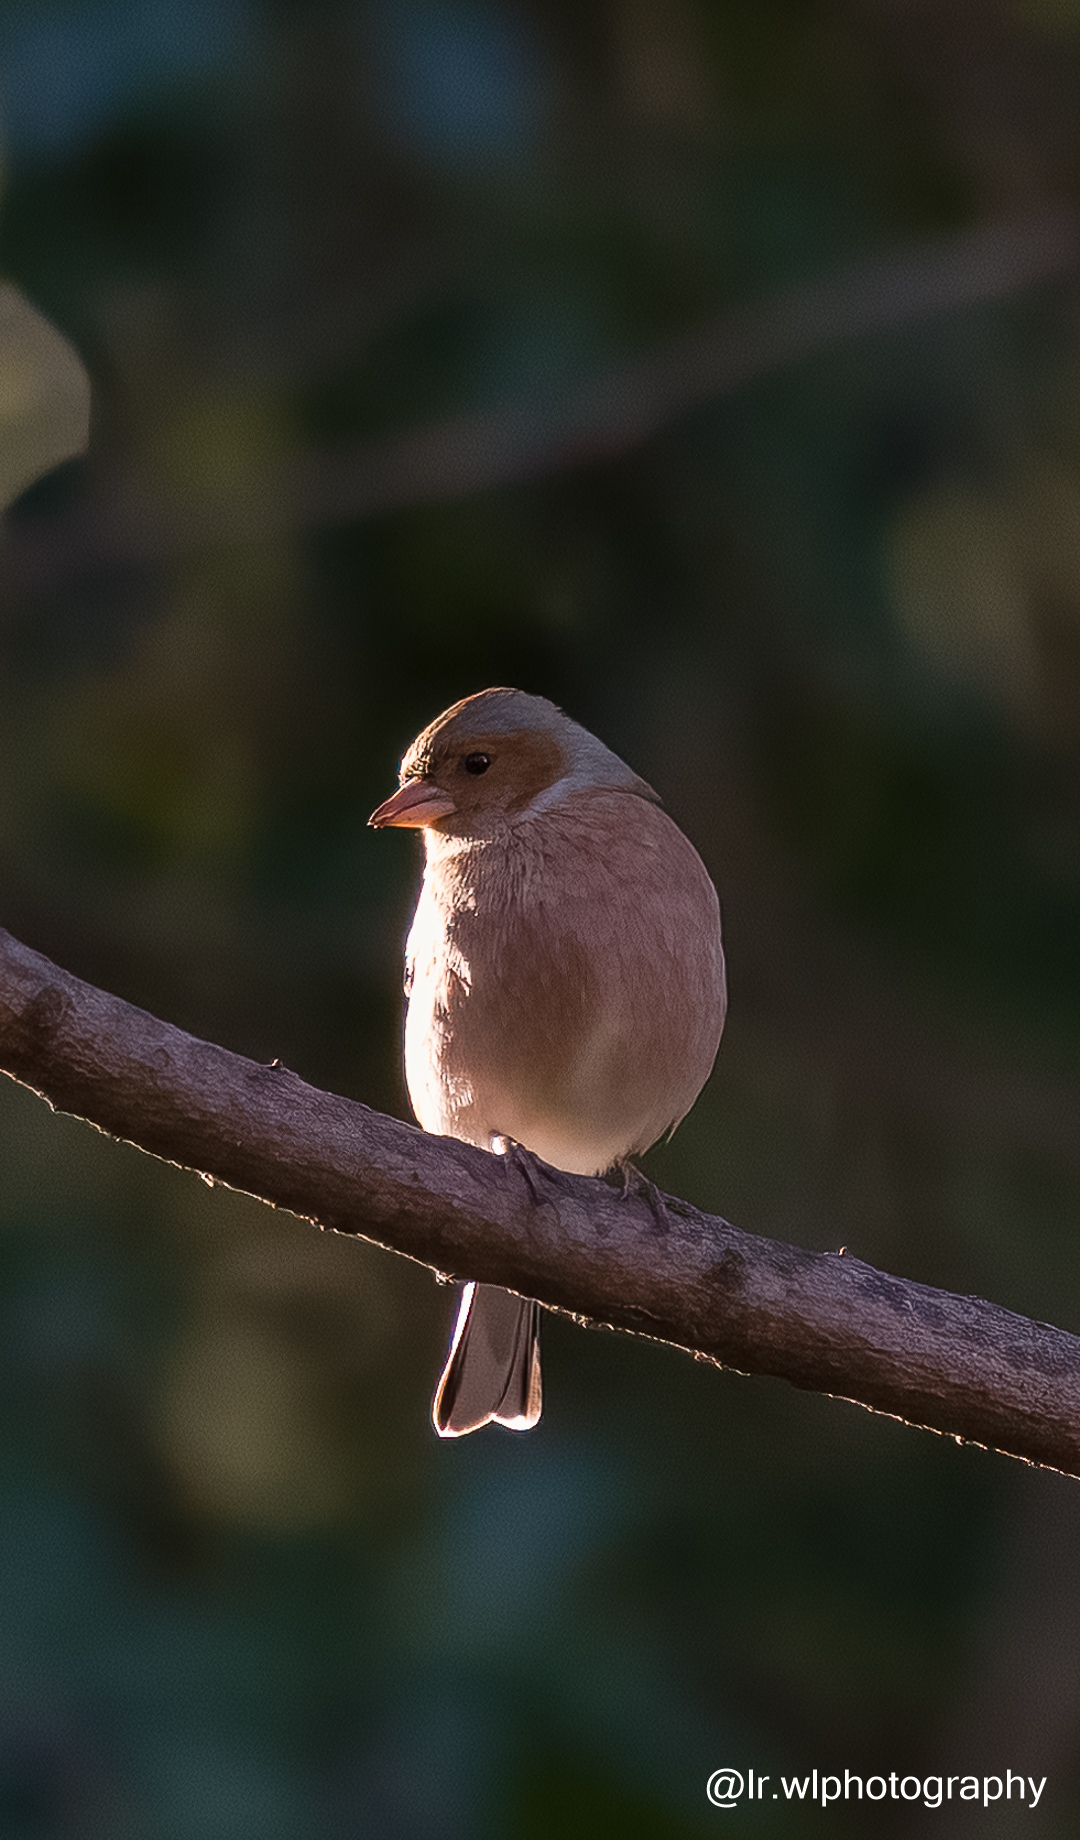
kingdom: Animalia
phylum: Chordata
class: Aves
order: Passeriformes
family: Fringillidae
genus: Fringilla
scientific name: Fringilla coelebs
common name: Common chaffinch
